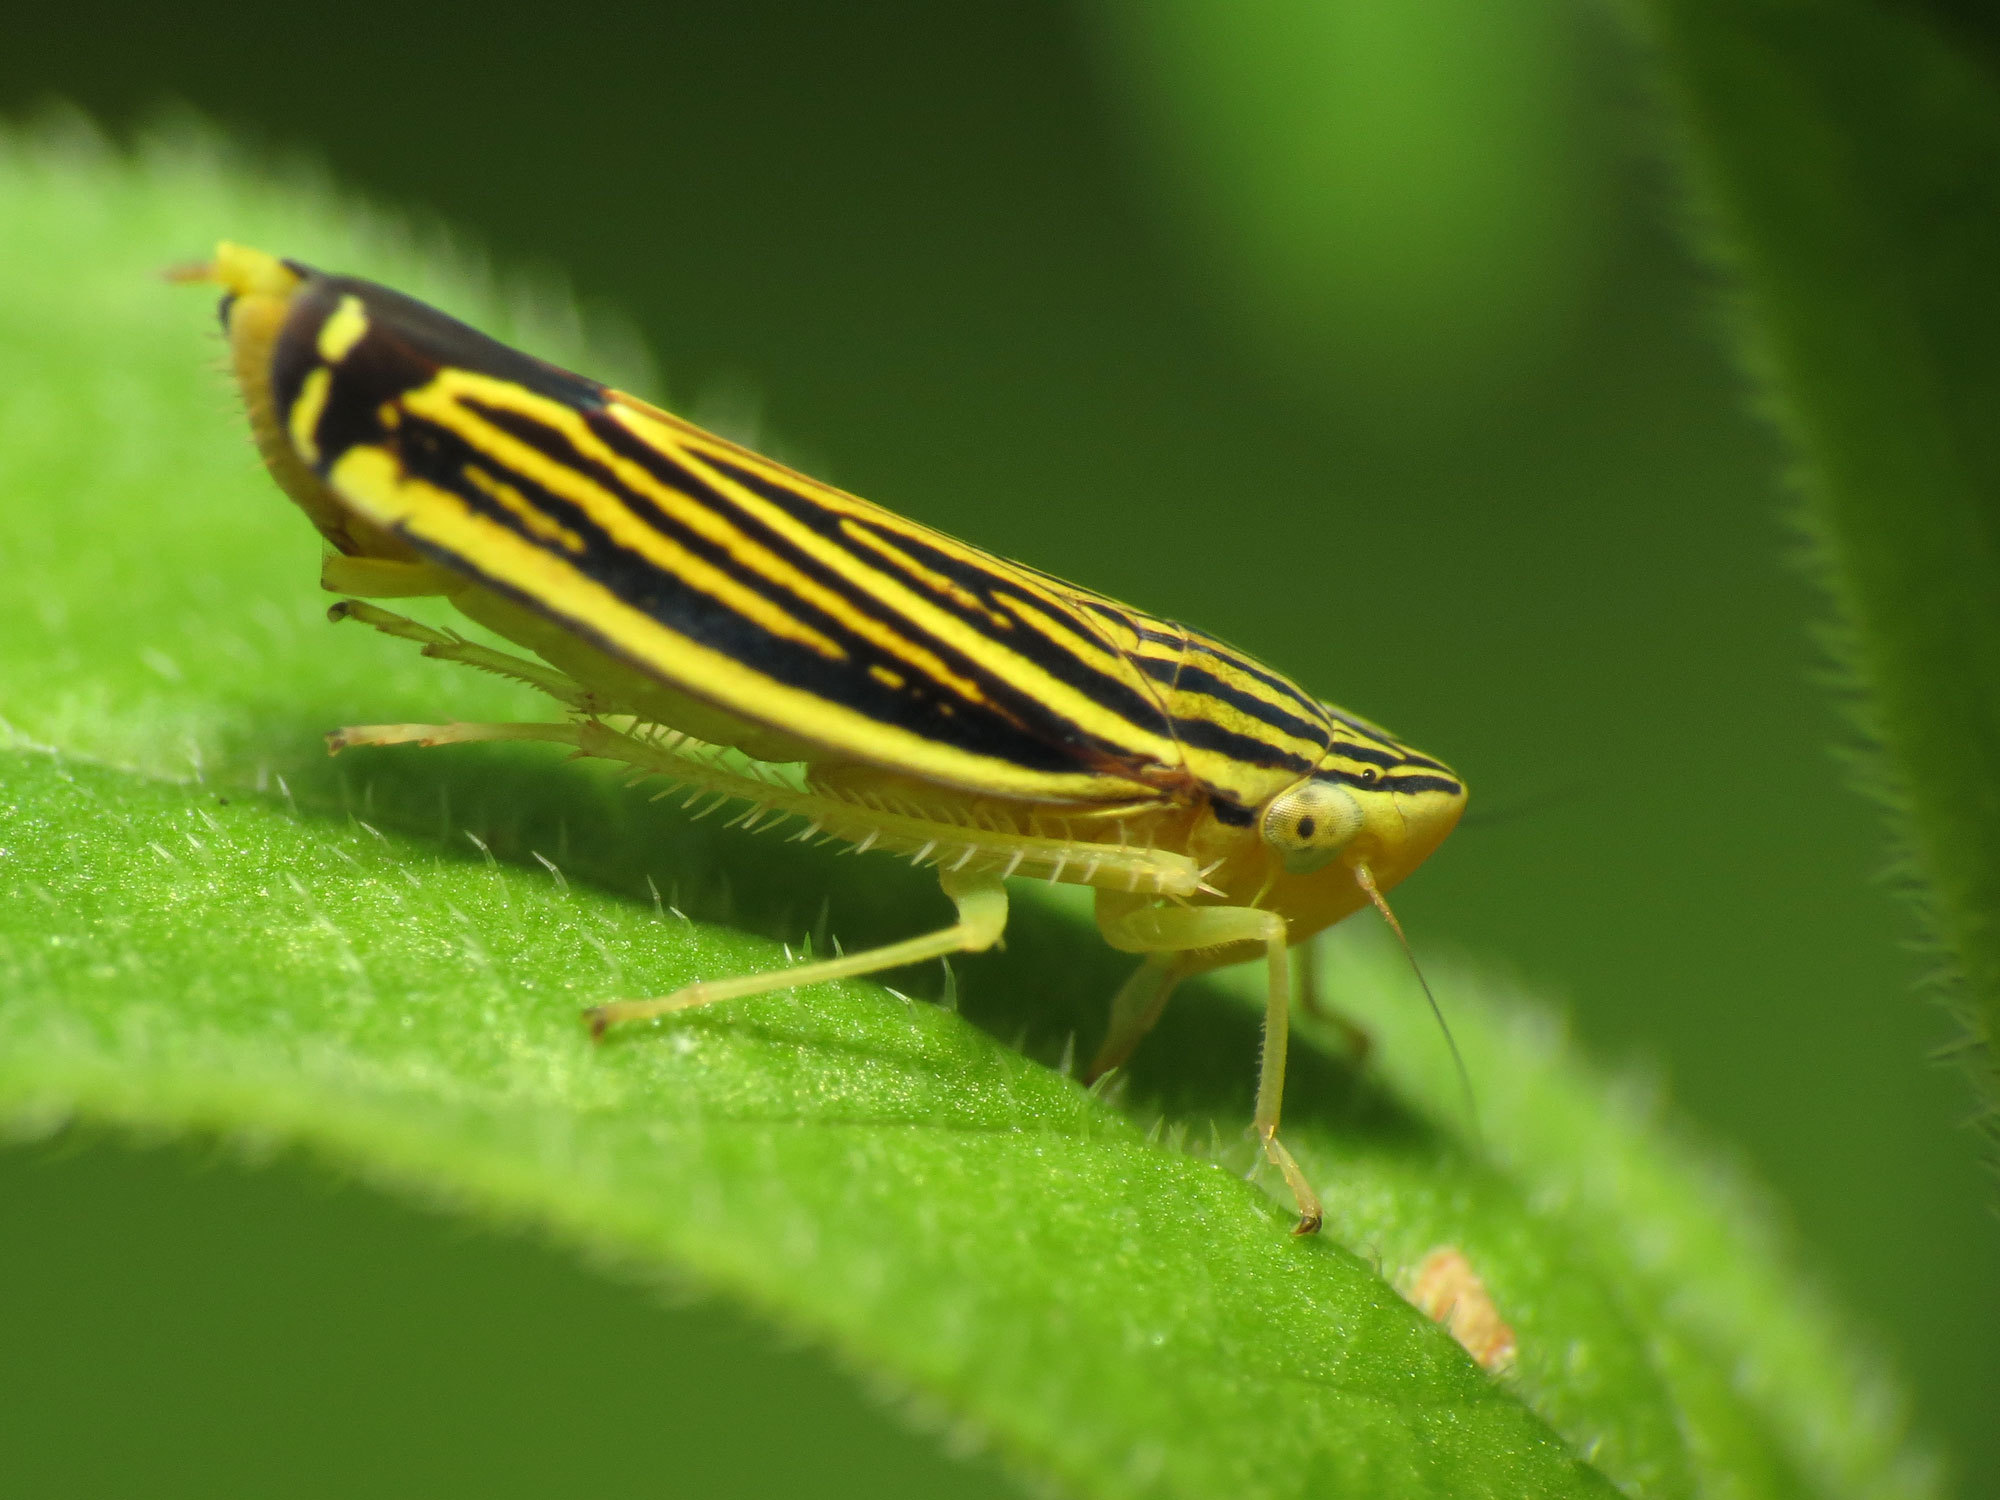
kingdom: Animalia
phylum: Arthropoda
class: Insecta
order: Hemiptera
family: Cicadellidae
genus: Sibovia
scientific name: Sibovia occatoria
